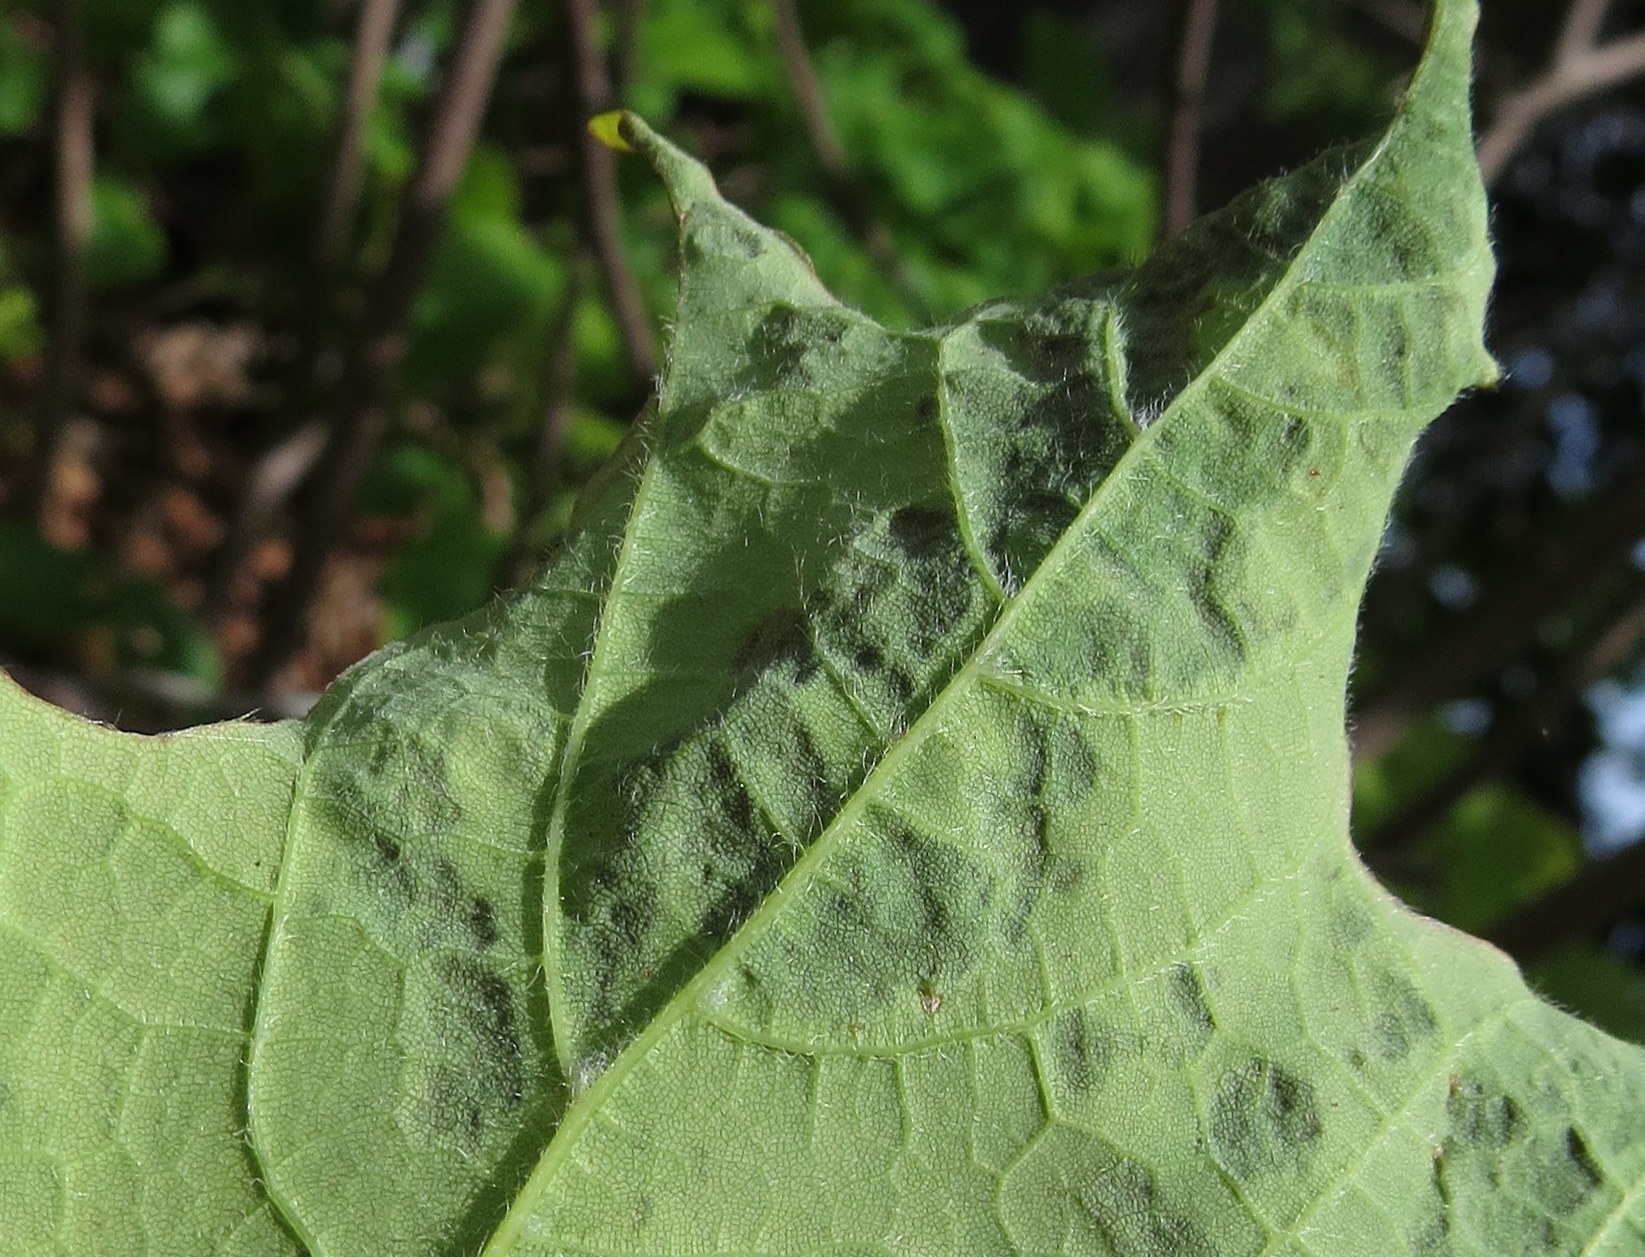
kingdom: Animalia
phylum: Arthropoda
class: Arachnida
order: Trombidiformes
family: Eriophyidae
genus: Aceria
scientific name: Aceria
